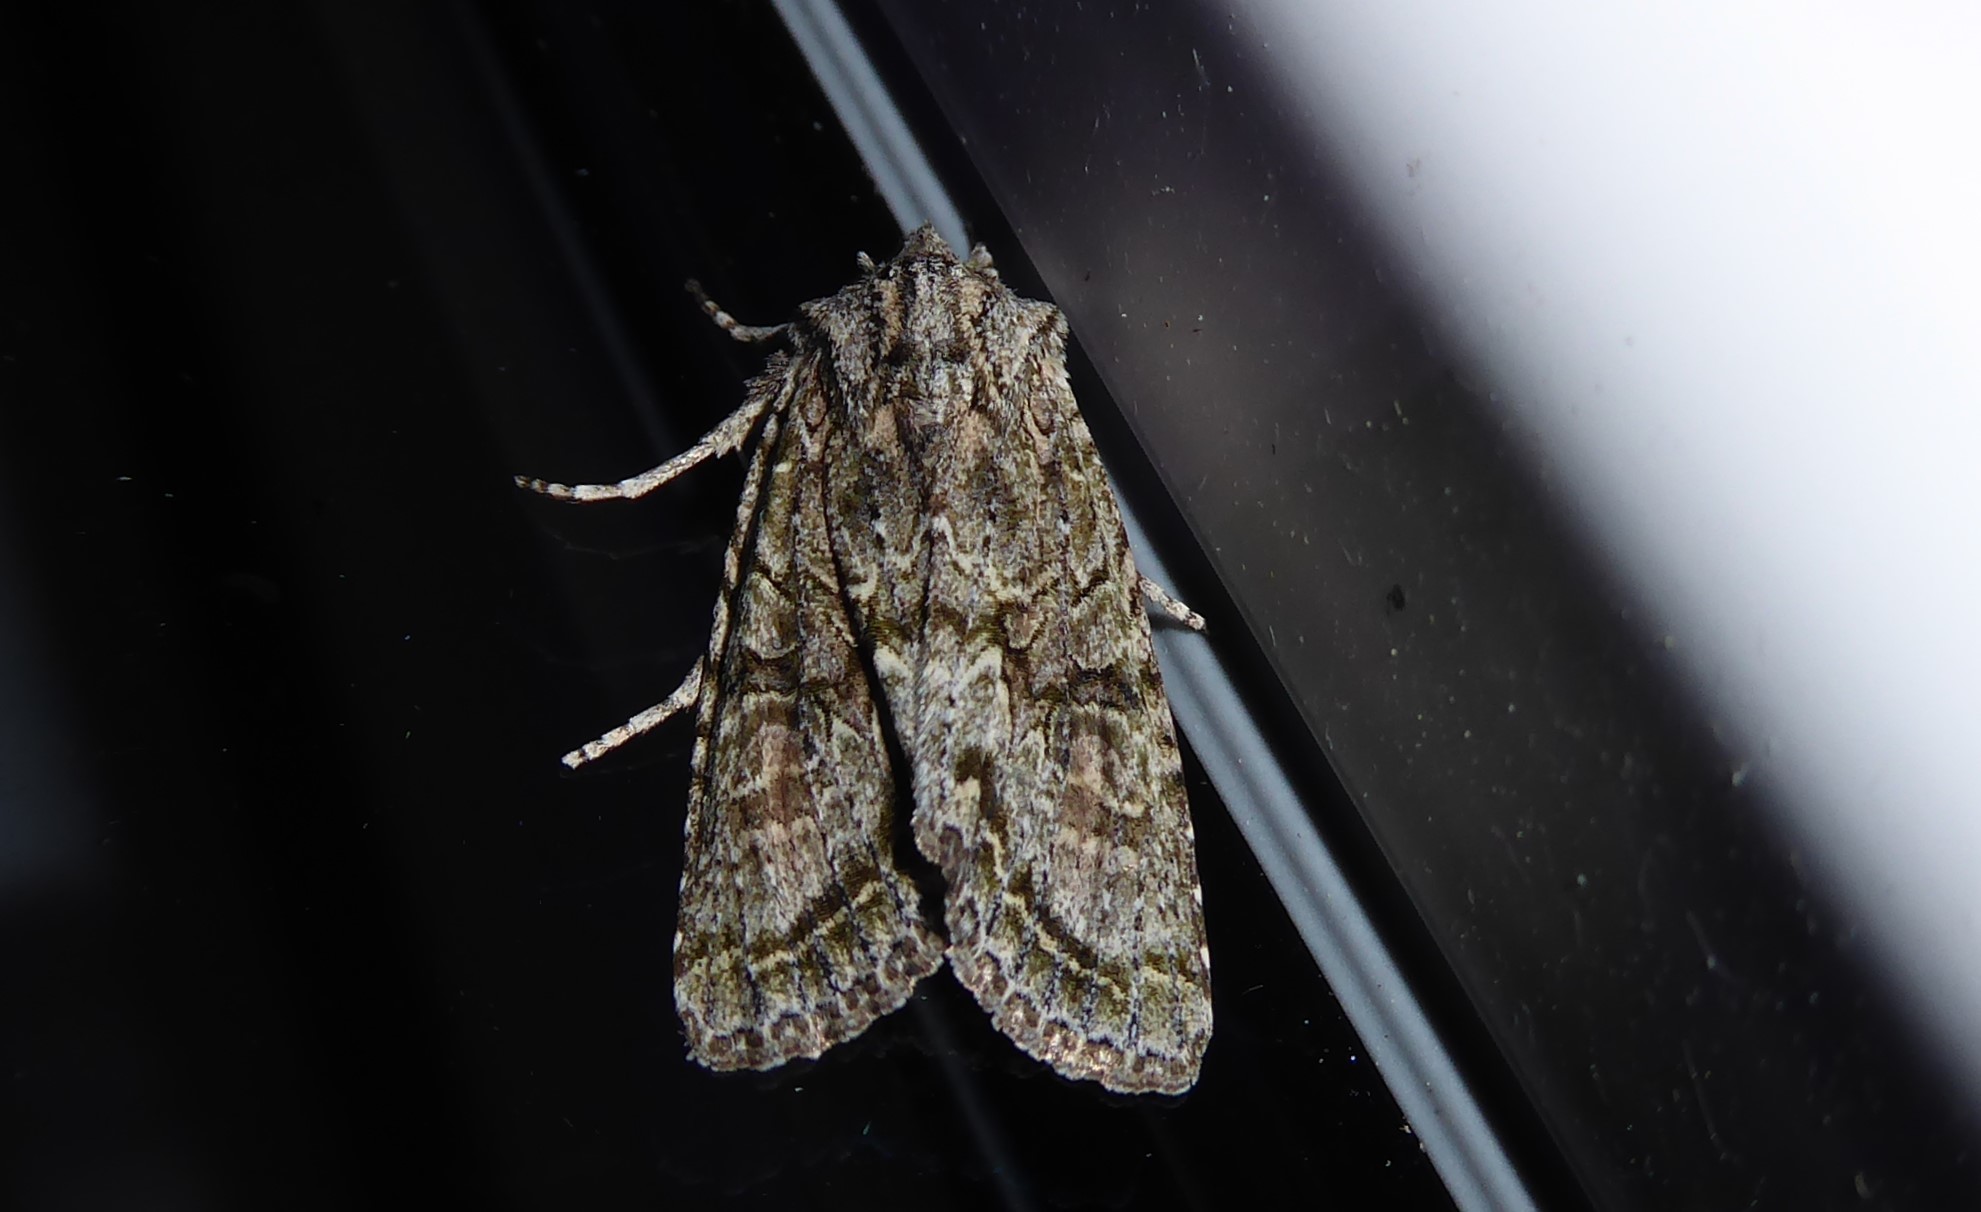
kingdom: Animalia
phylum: Arthropoda
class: Insecta
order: Lepidoptera
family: Noctuidae
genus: Ichneutica
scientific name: Ichneutica mutans
